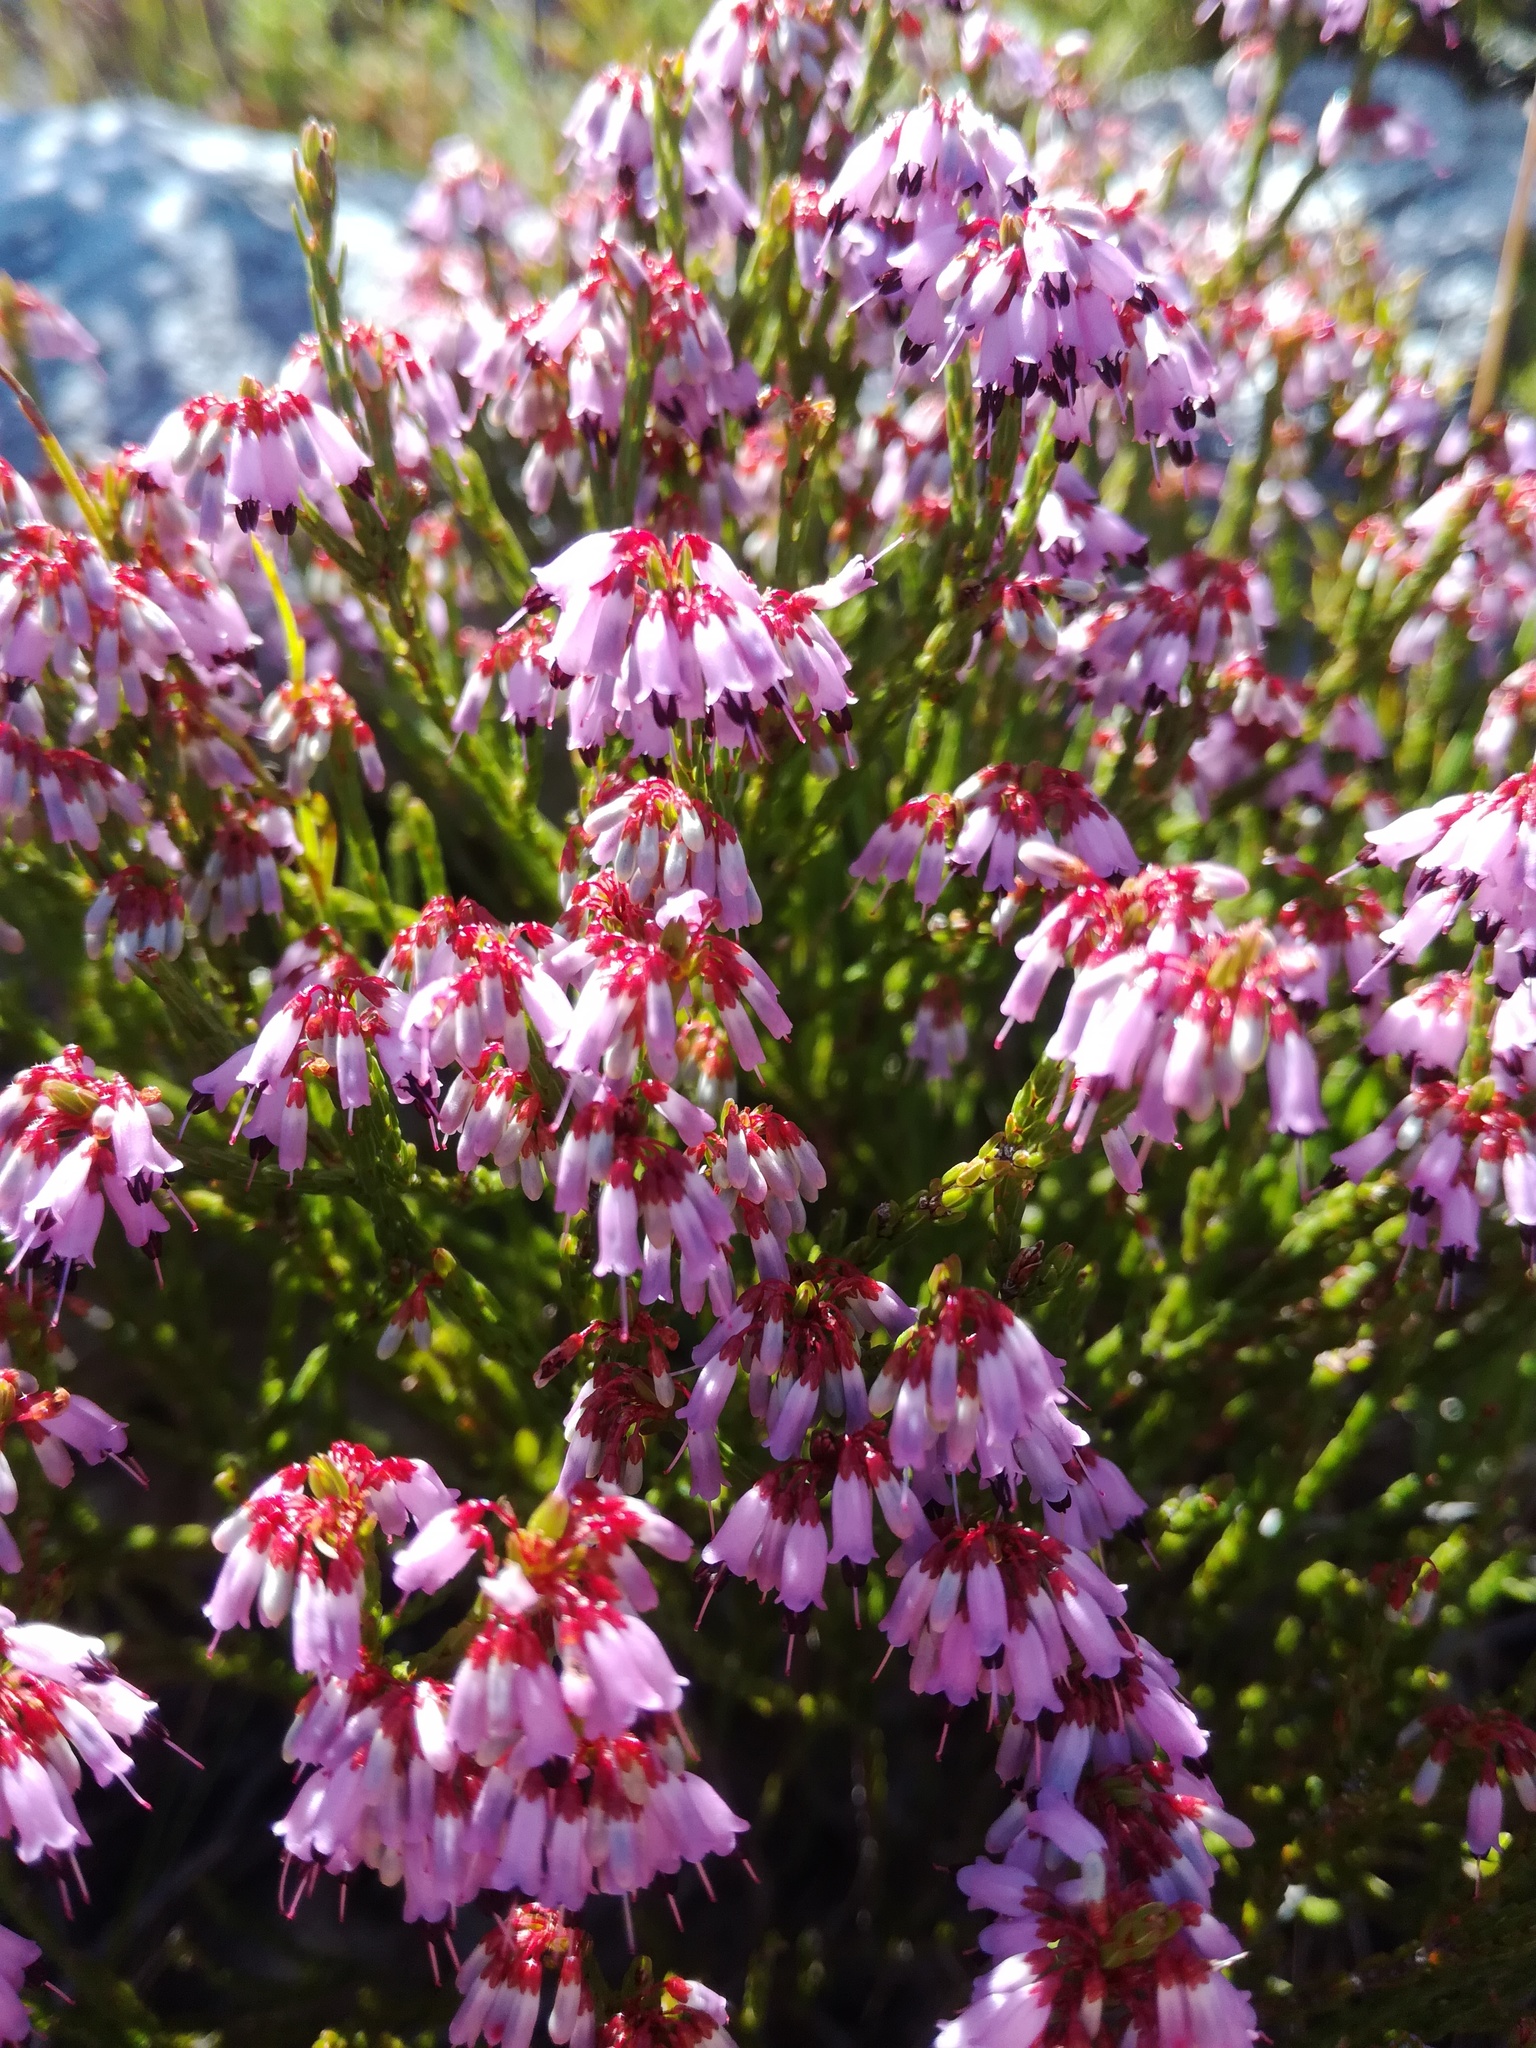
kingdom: Plantae
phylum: Tracheophyta
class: Magnoliopsida
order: Ericales
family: Ericaceae
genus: Erica
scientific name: Erica equisetifolia
